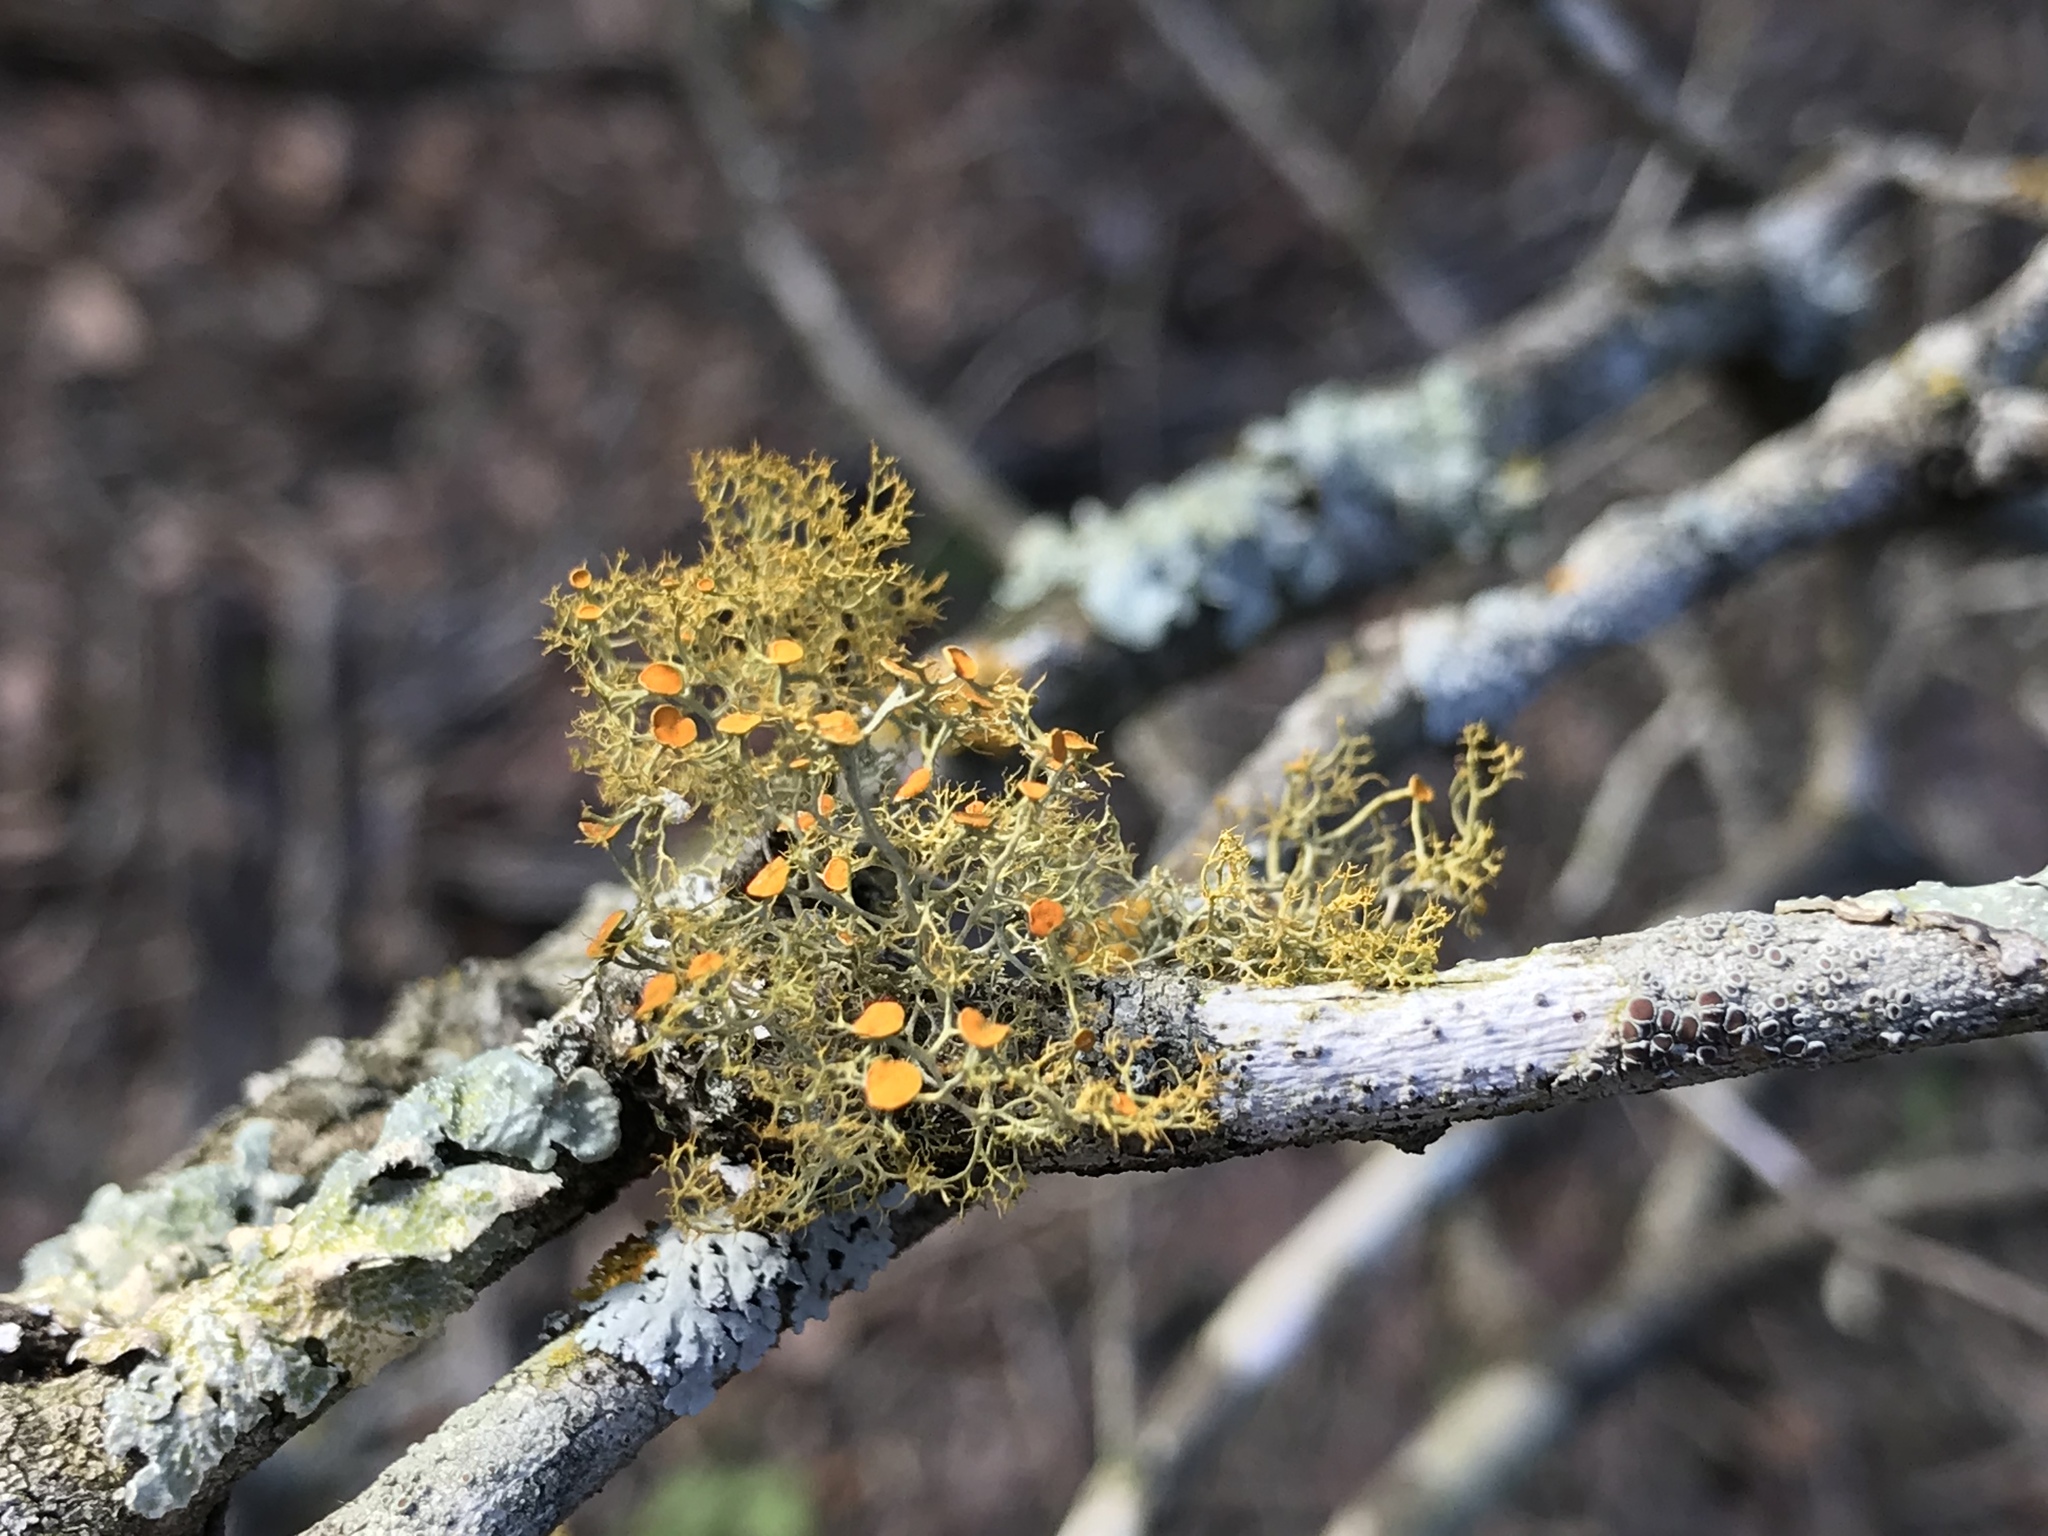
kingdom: Fungi
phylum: Ascomycota
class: Lecanoromycetes
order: Teloschistales
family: Teloschistaceae
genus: Teloschistes
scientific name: Teloschistes exilis
